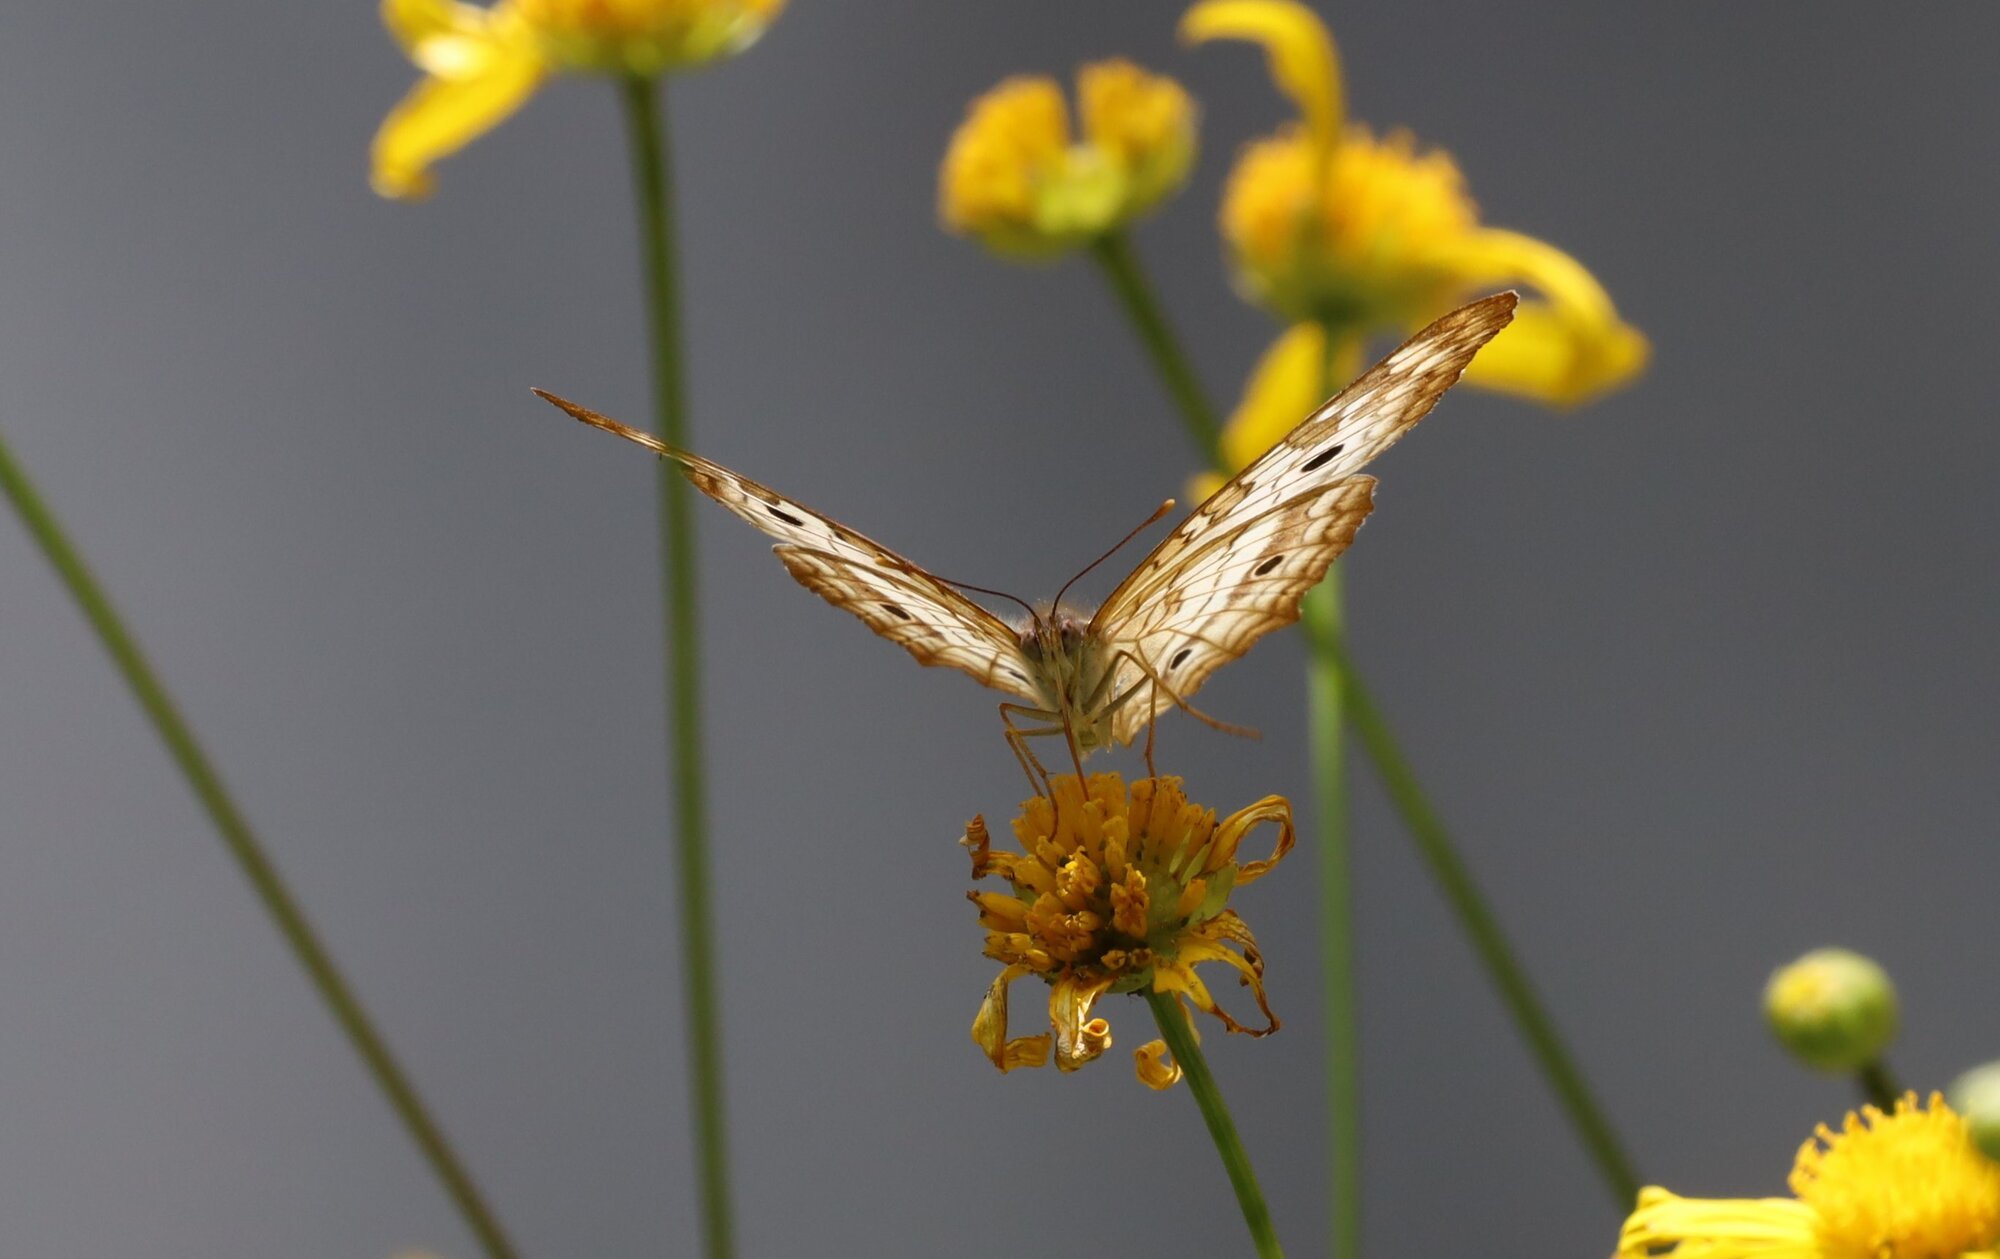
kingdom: Animalia
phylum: Arthropoda
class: Insecta
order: Lepidoptera
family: Nymphalidae
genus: Anartia
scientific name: Anartia jatrophae
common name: White peacock
